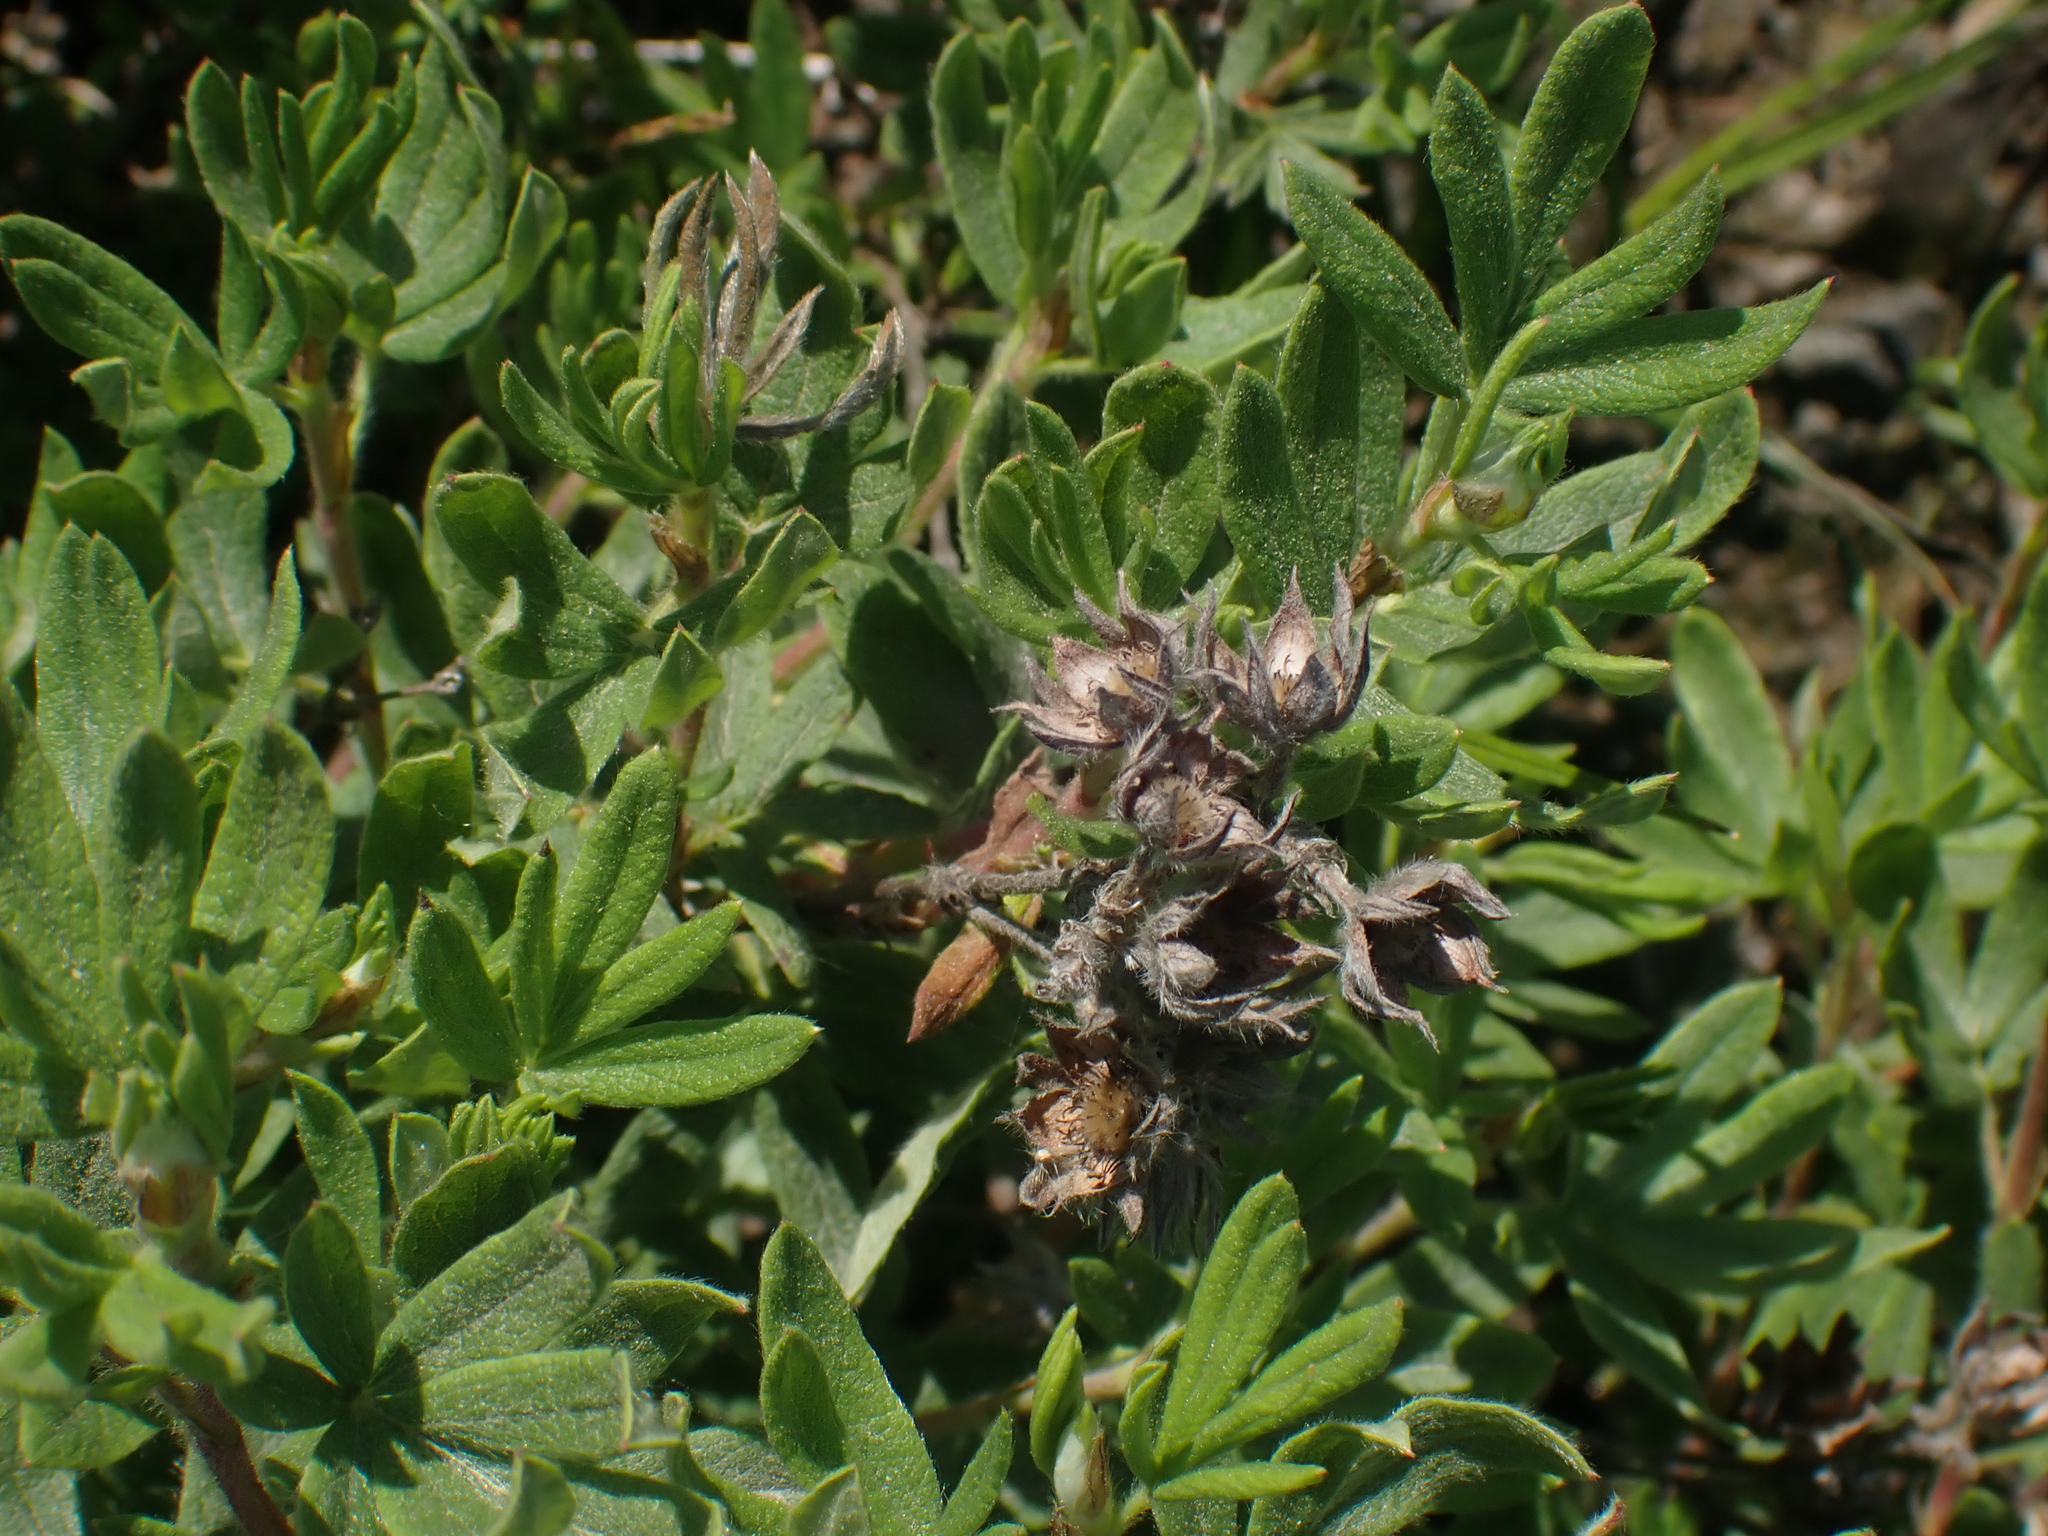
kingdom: Plantae
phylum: Tracheophyta
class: Magnoliopsida
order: Rosales
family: Rosaceae
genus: Dasiphora
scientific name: Dasiphora fruticosa
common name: Shrubby cinquefoil
